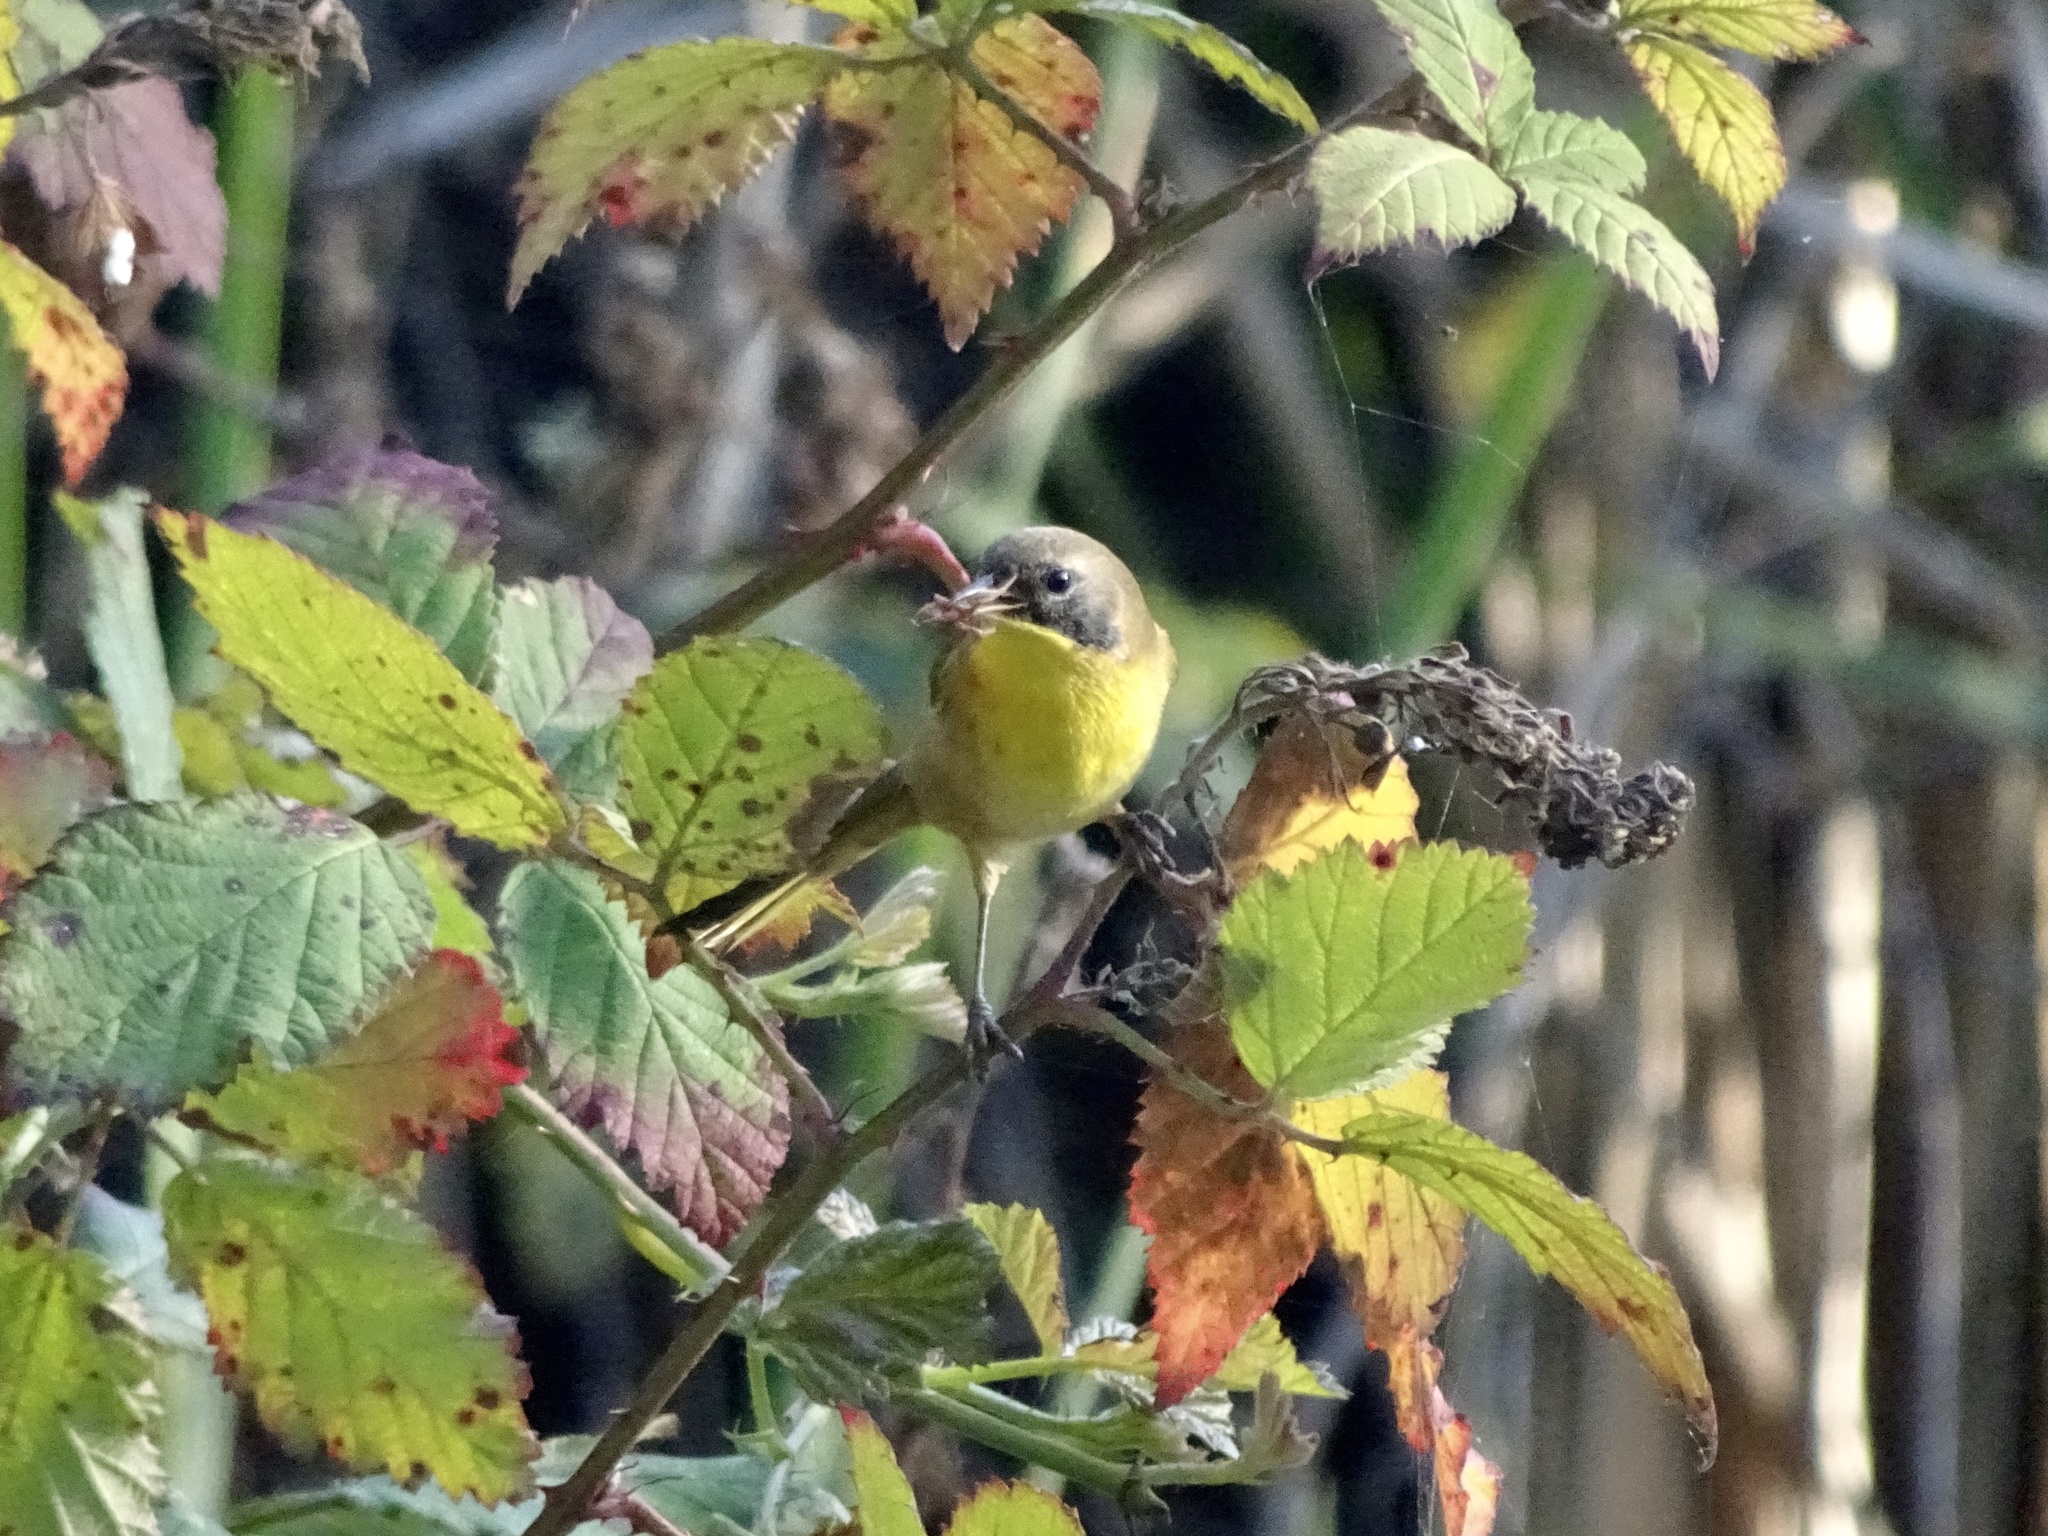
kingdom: Animalia
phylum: Chordata
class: Aves
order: Passeriformes
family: Parulidae
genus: Geothlypis
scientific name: Geothlypis trichas
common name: Common yellowthroat
